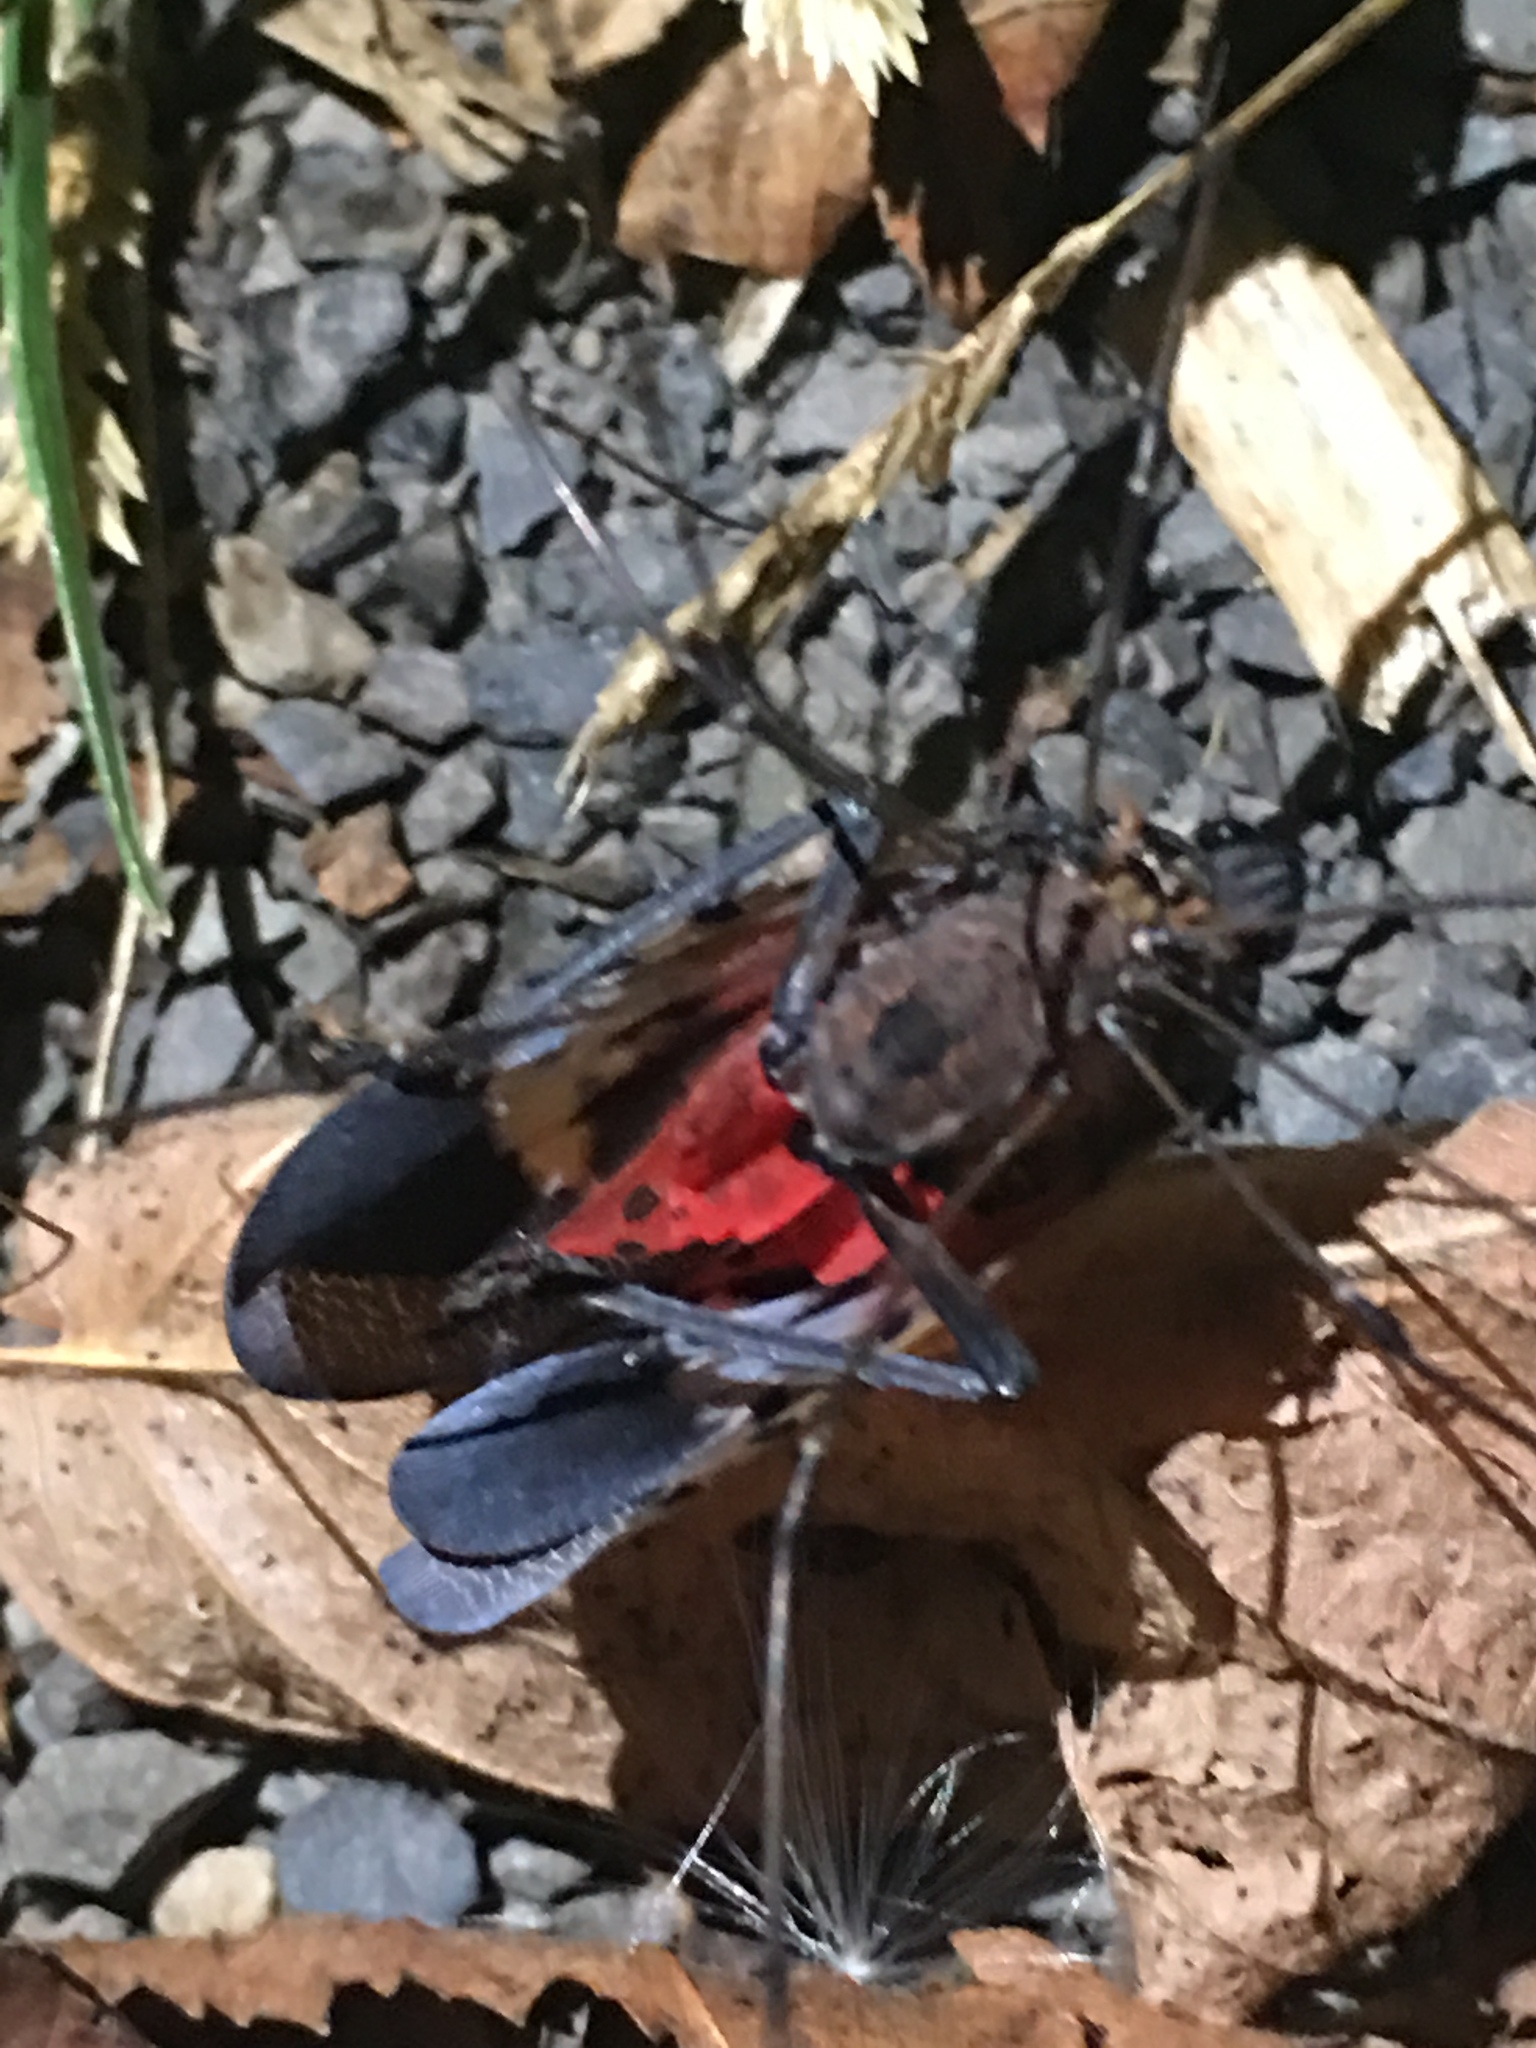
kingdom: Animalia
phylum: Arthropoda
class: Insecta
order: Hemiptera
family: Fulgoridae
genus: Lycorma
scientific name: Lycorma delicatula
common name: Spotted lanternfly
